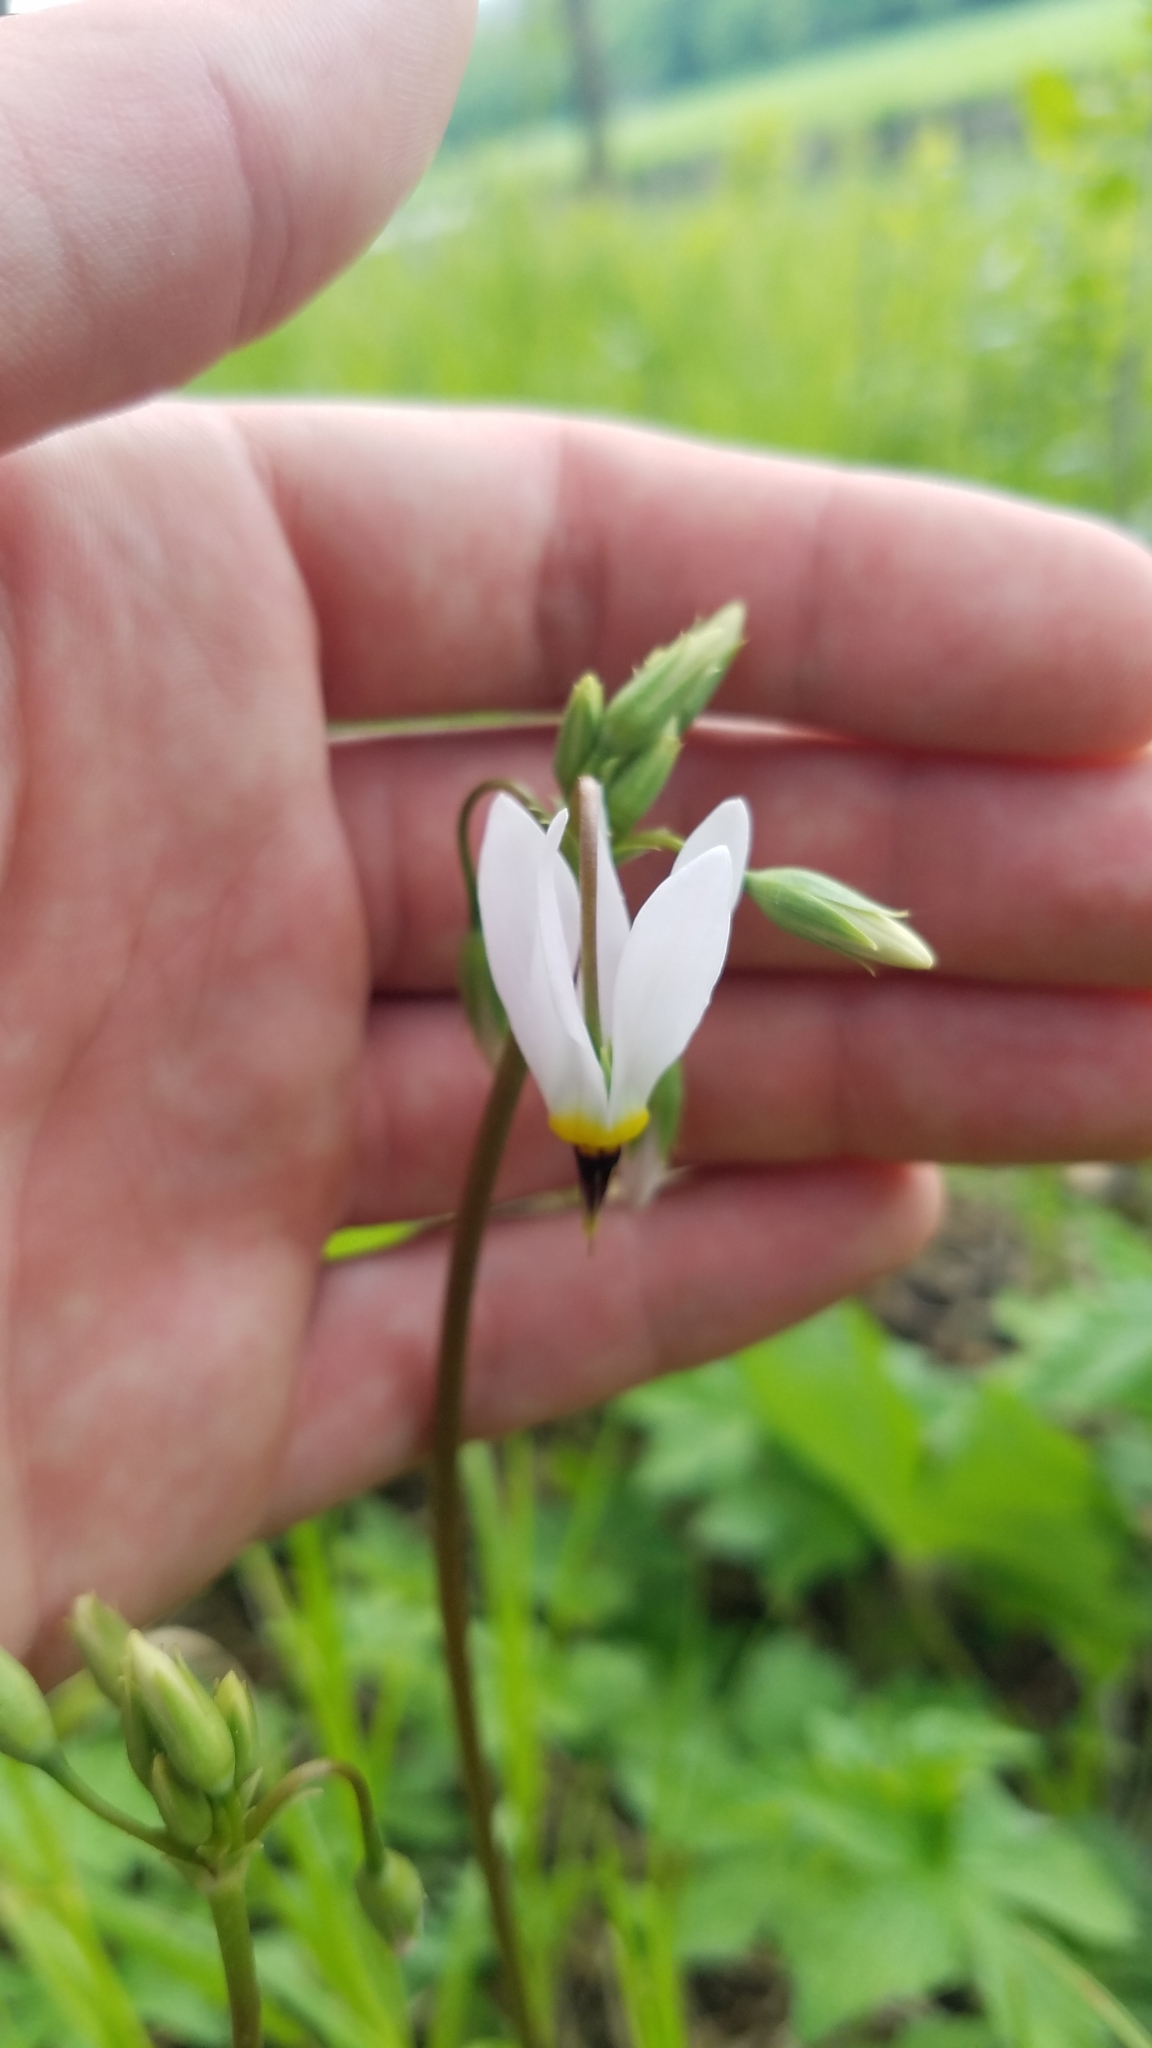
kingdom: Plantae
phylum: Tracheophyta
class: Magnoliopsida
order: Ericales
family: Primulaceae
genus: Dodecatheon
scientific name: Dodecatheon meadia
